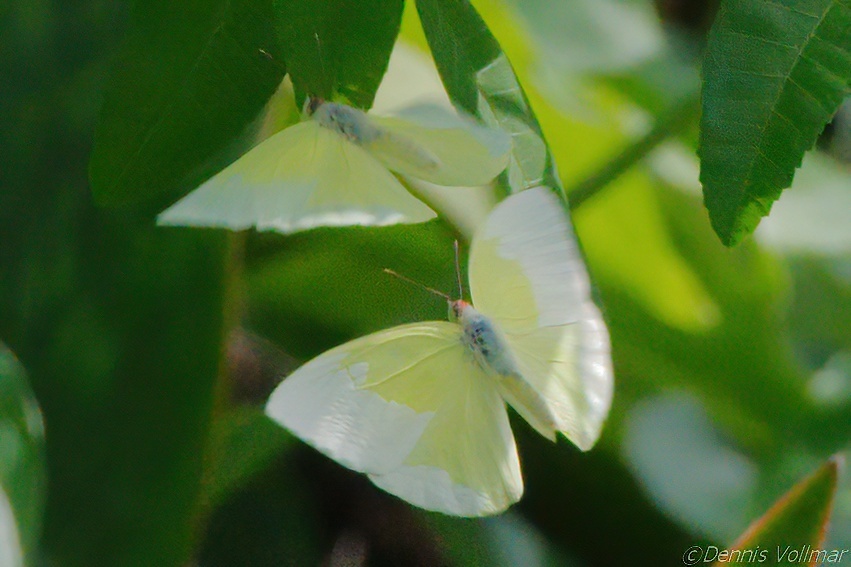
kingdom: Animalia
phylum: Arthropoda
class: Insecta
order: Lepidoptera
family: Pieridae
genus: Aphrissa
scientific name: Aphrissa statira
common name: Statira sulphur
